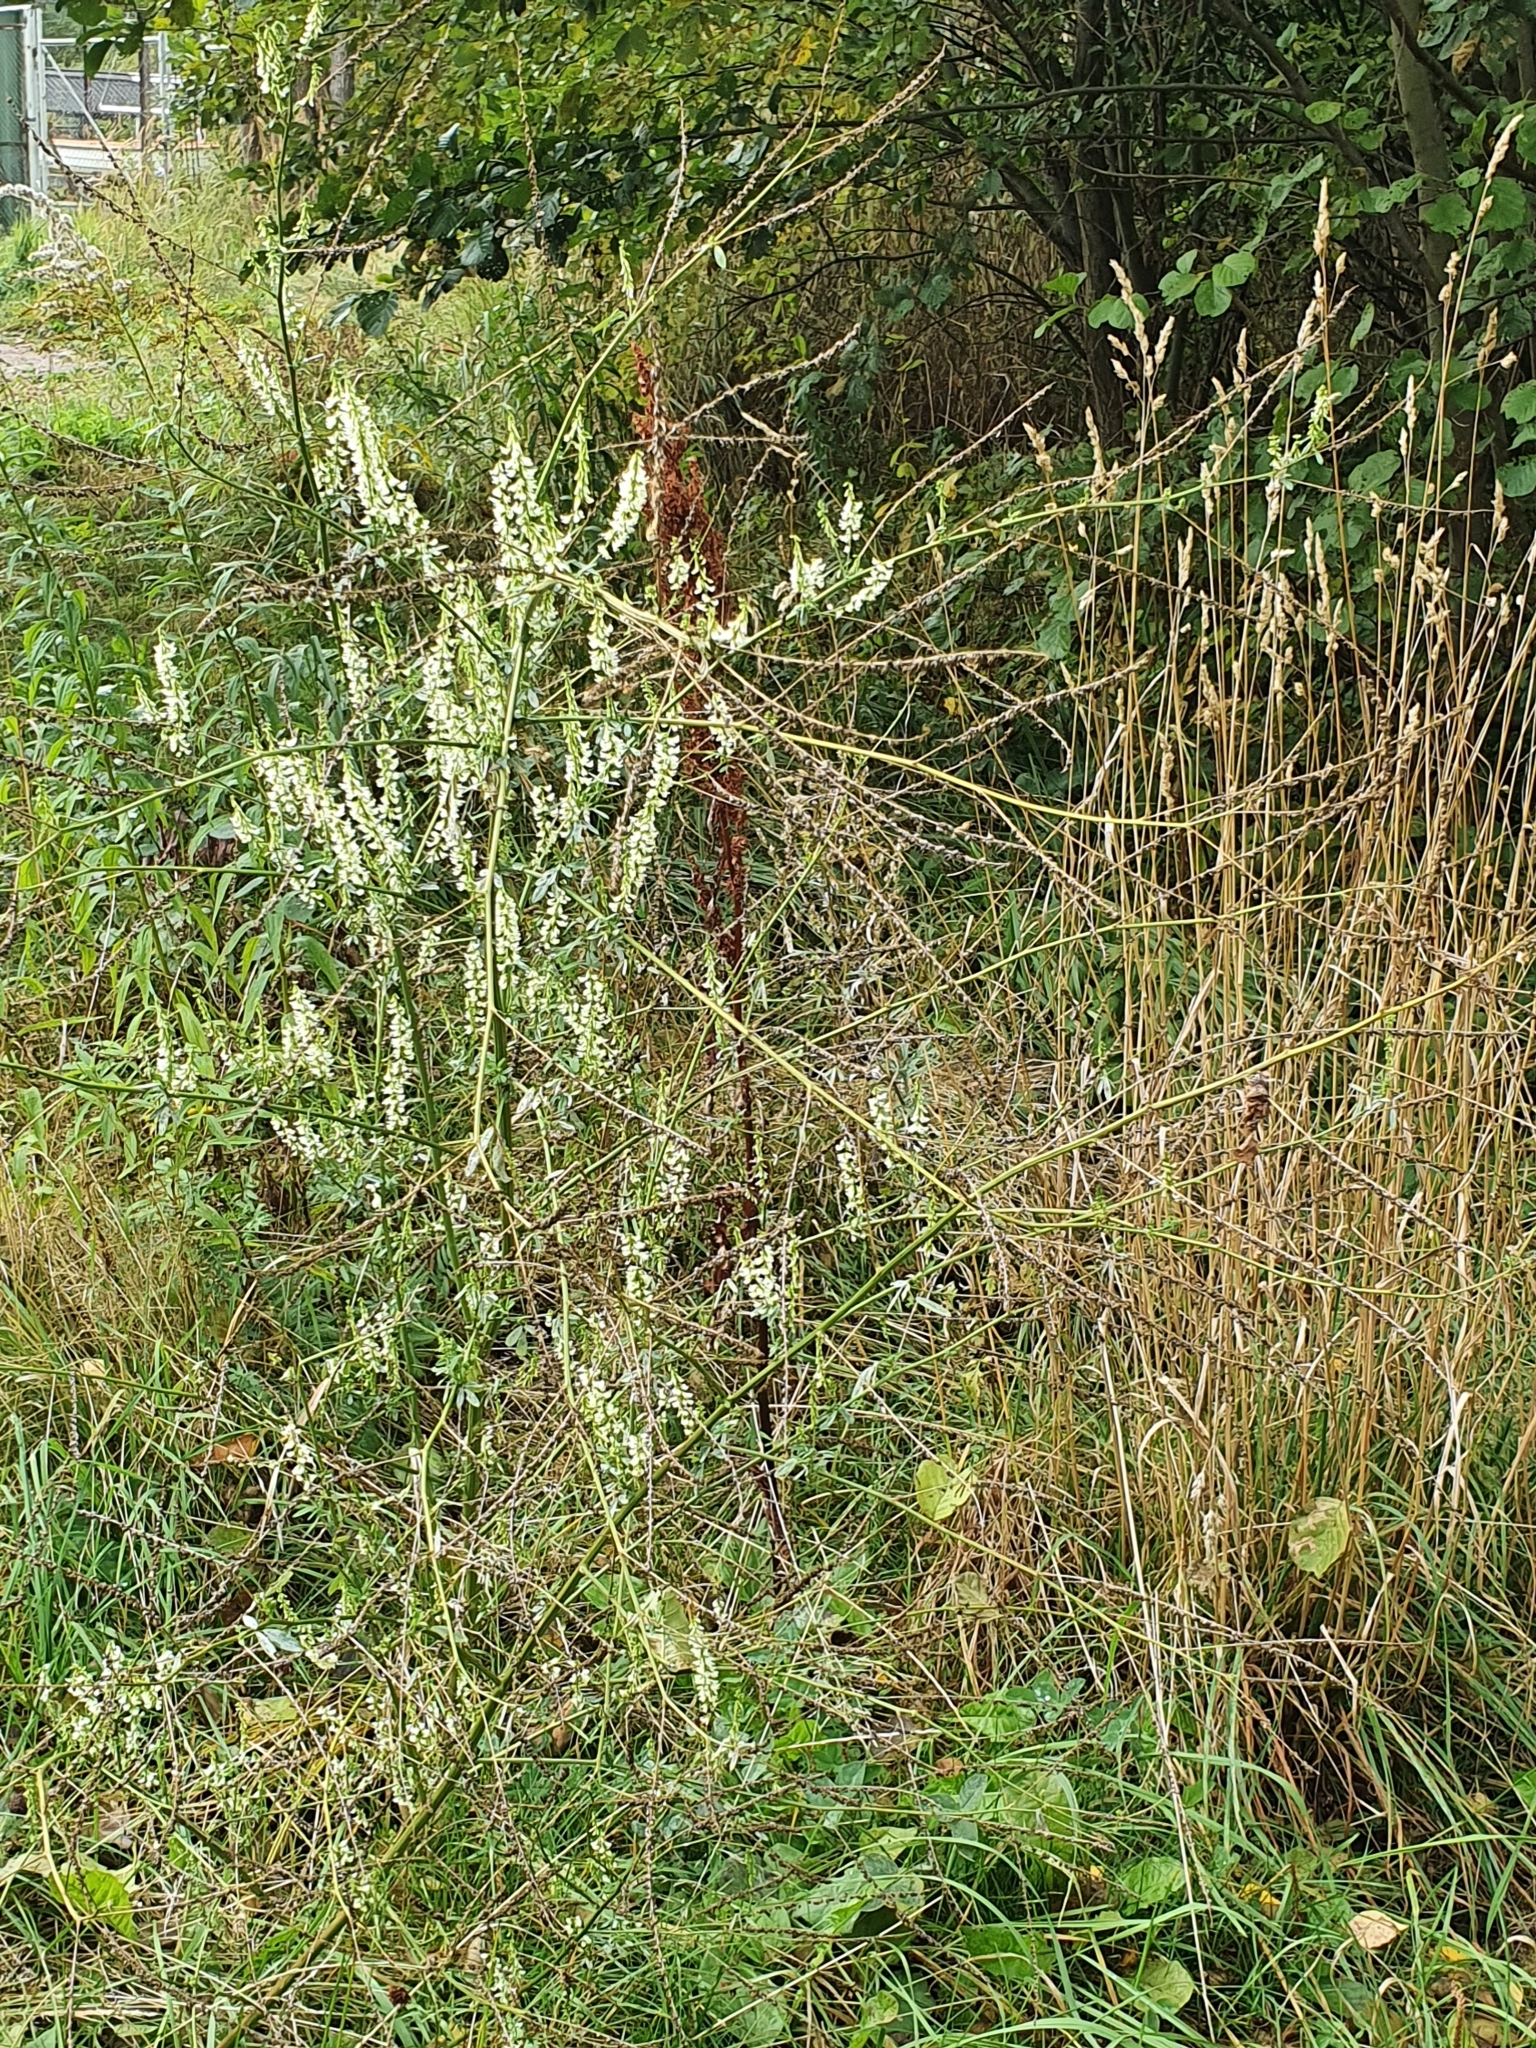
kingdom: Plantae
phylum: Tracheophyta
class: Magnoliopsida
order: Fabales
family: Fabaceae
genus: Melilotus
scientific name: Melilotus albus
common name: White melilot
